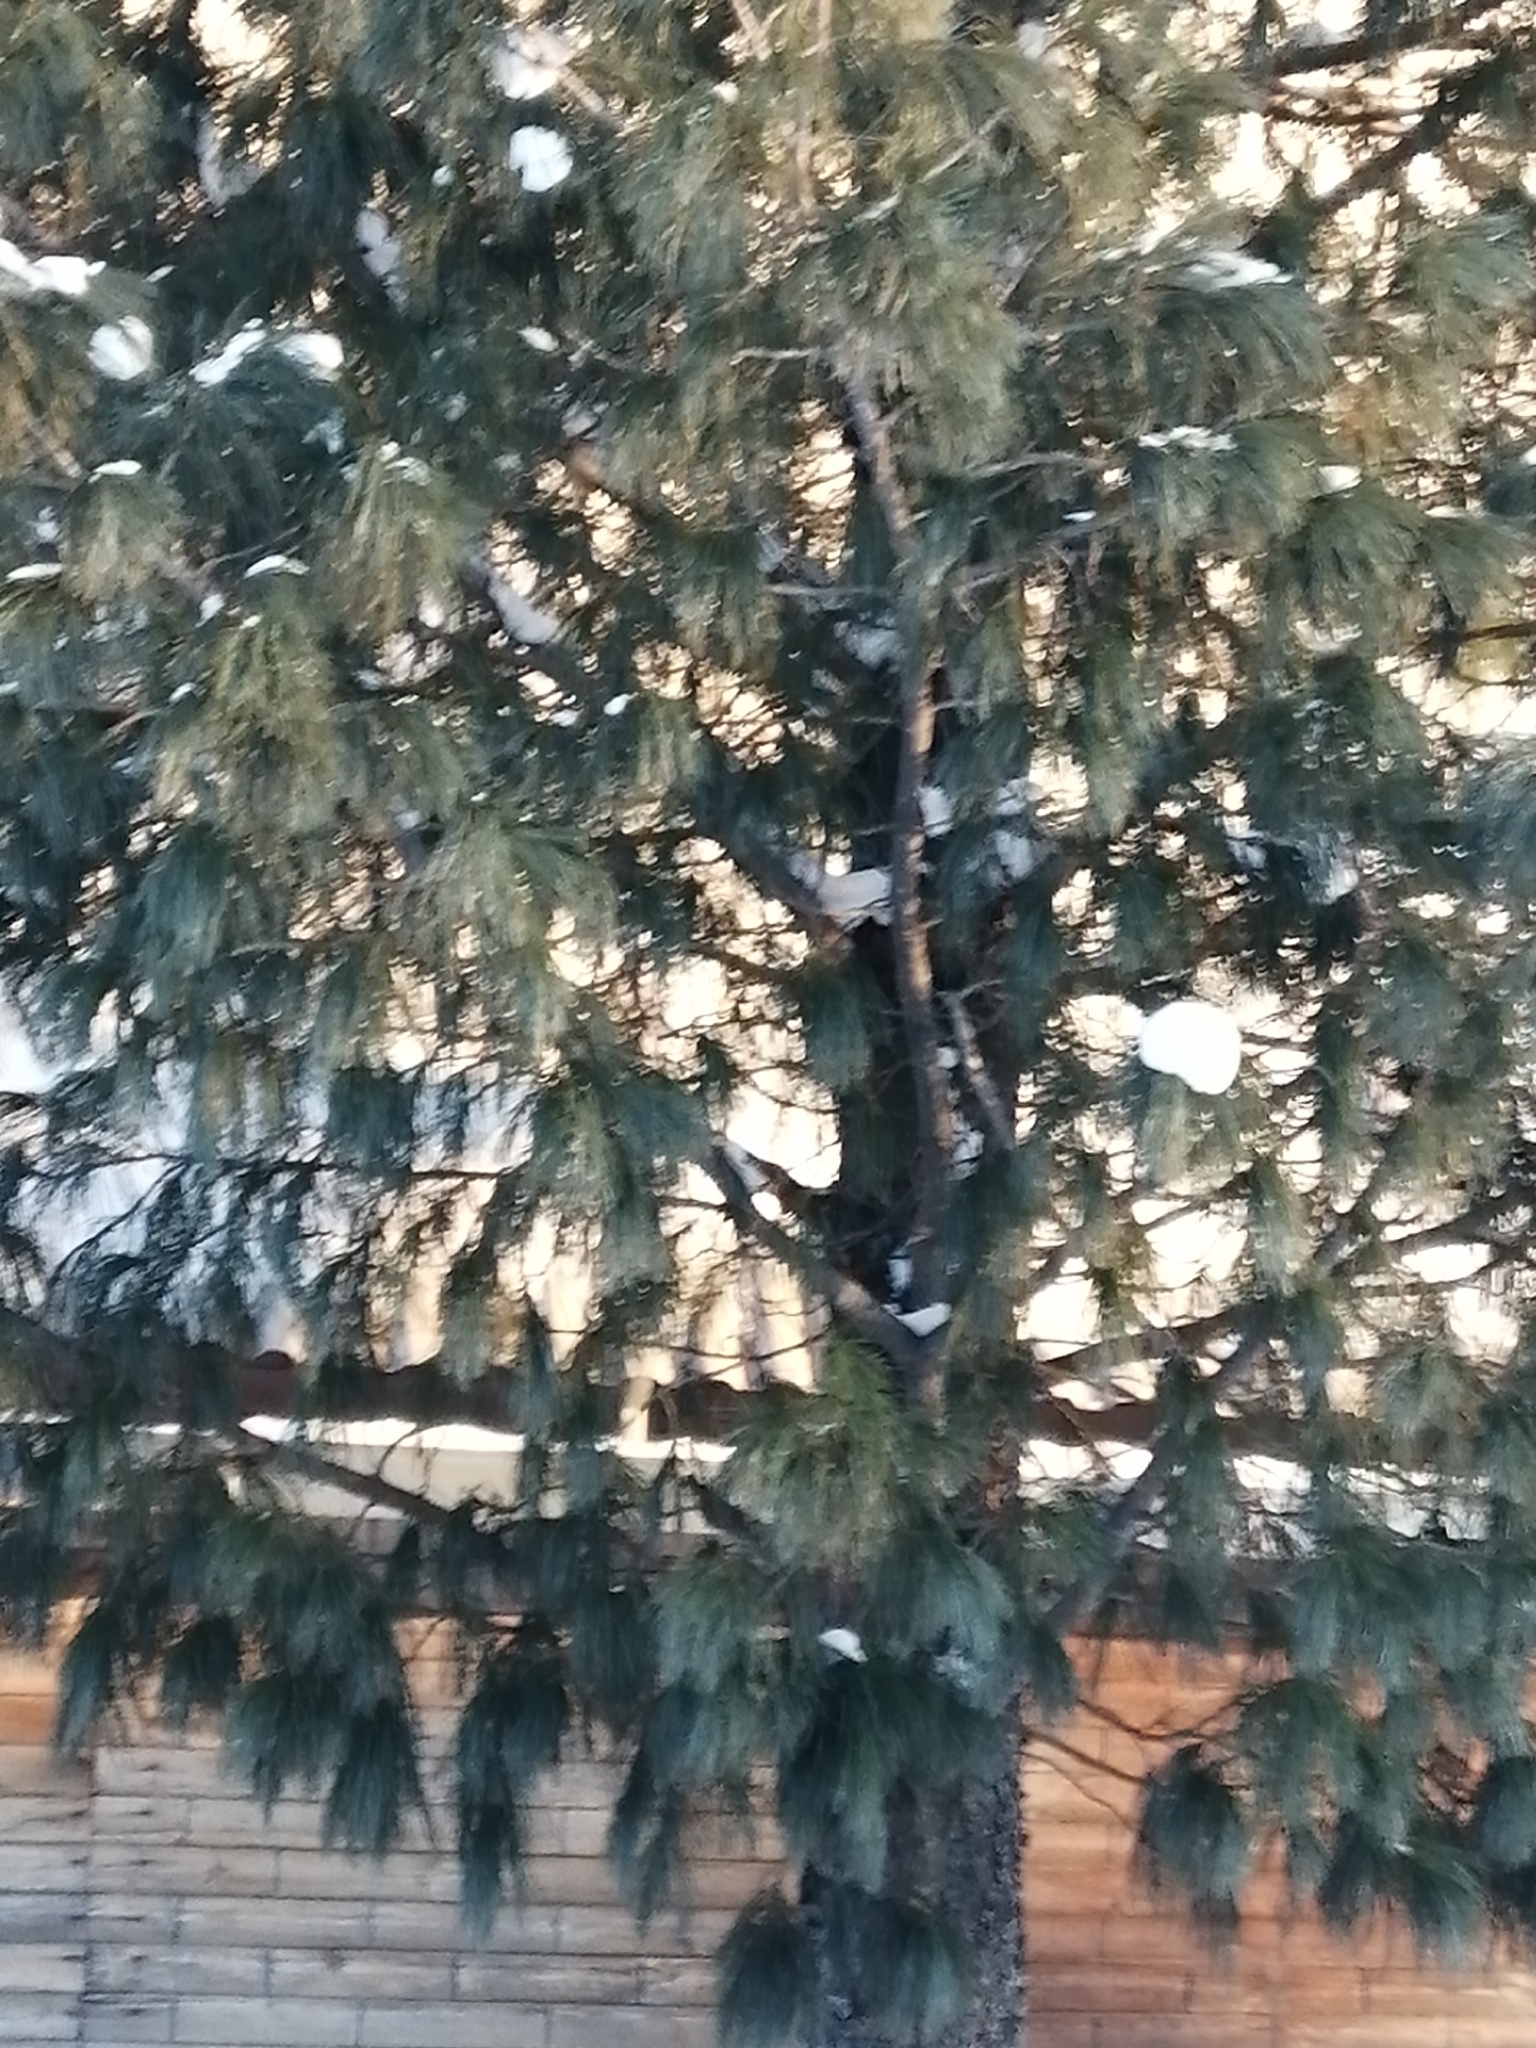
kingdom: Plantae
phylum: Tracheophyta
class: Pinopsida
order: Pinales
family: Pinaceae
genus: Pinus
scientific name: Pinus sibirica
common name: Siberian pine
